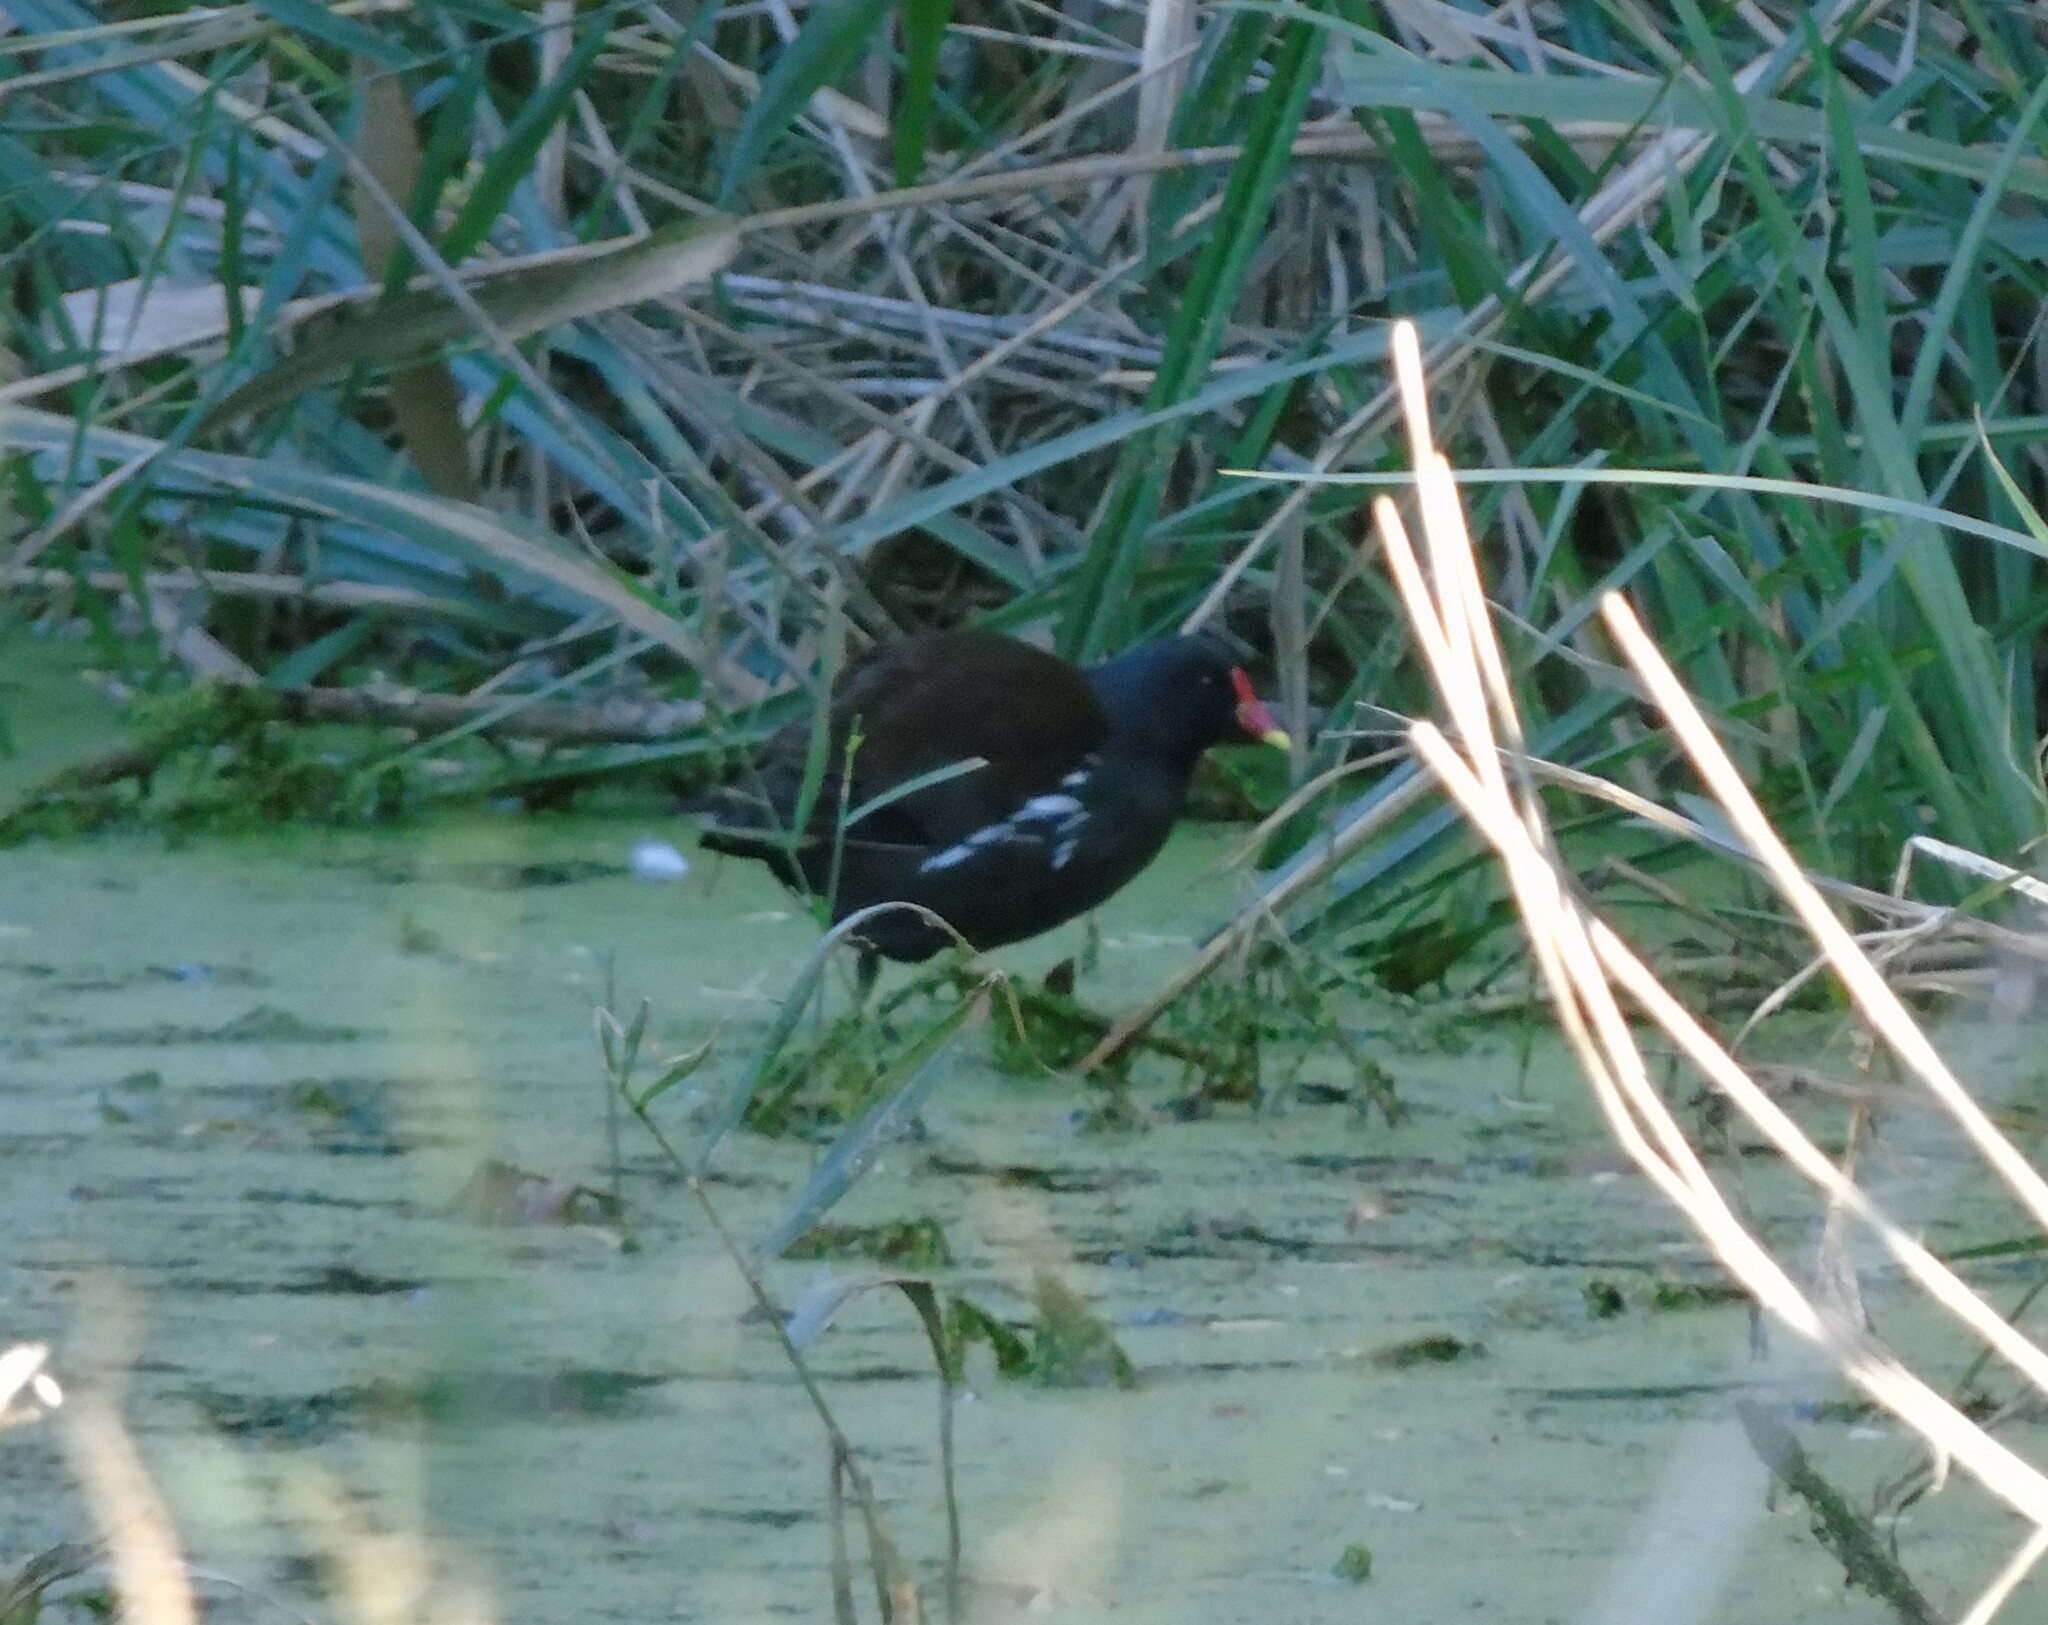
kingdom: Animalia
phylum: Chordata
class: Aves
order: Gruiformes
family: Rallidae
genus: Gallinula
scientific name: Gallinula chloropus
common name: Common moorhen
